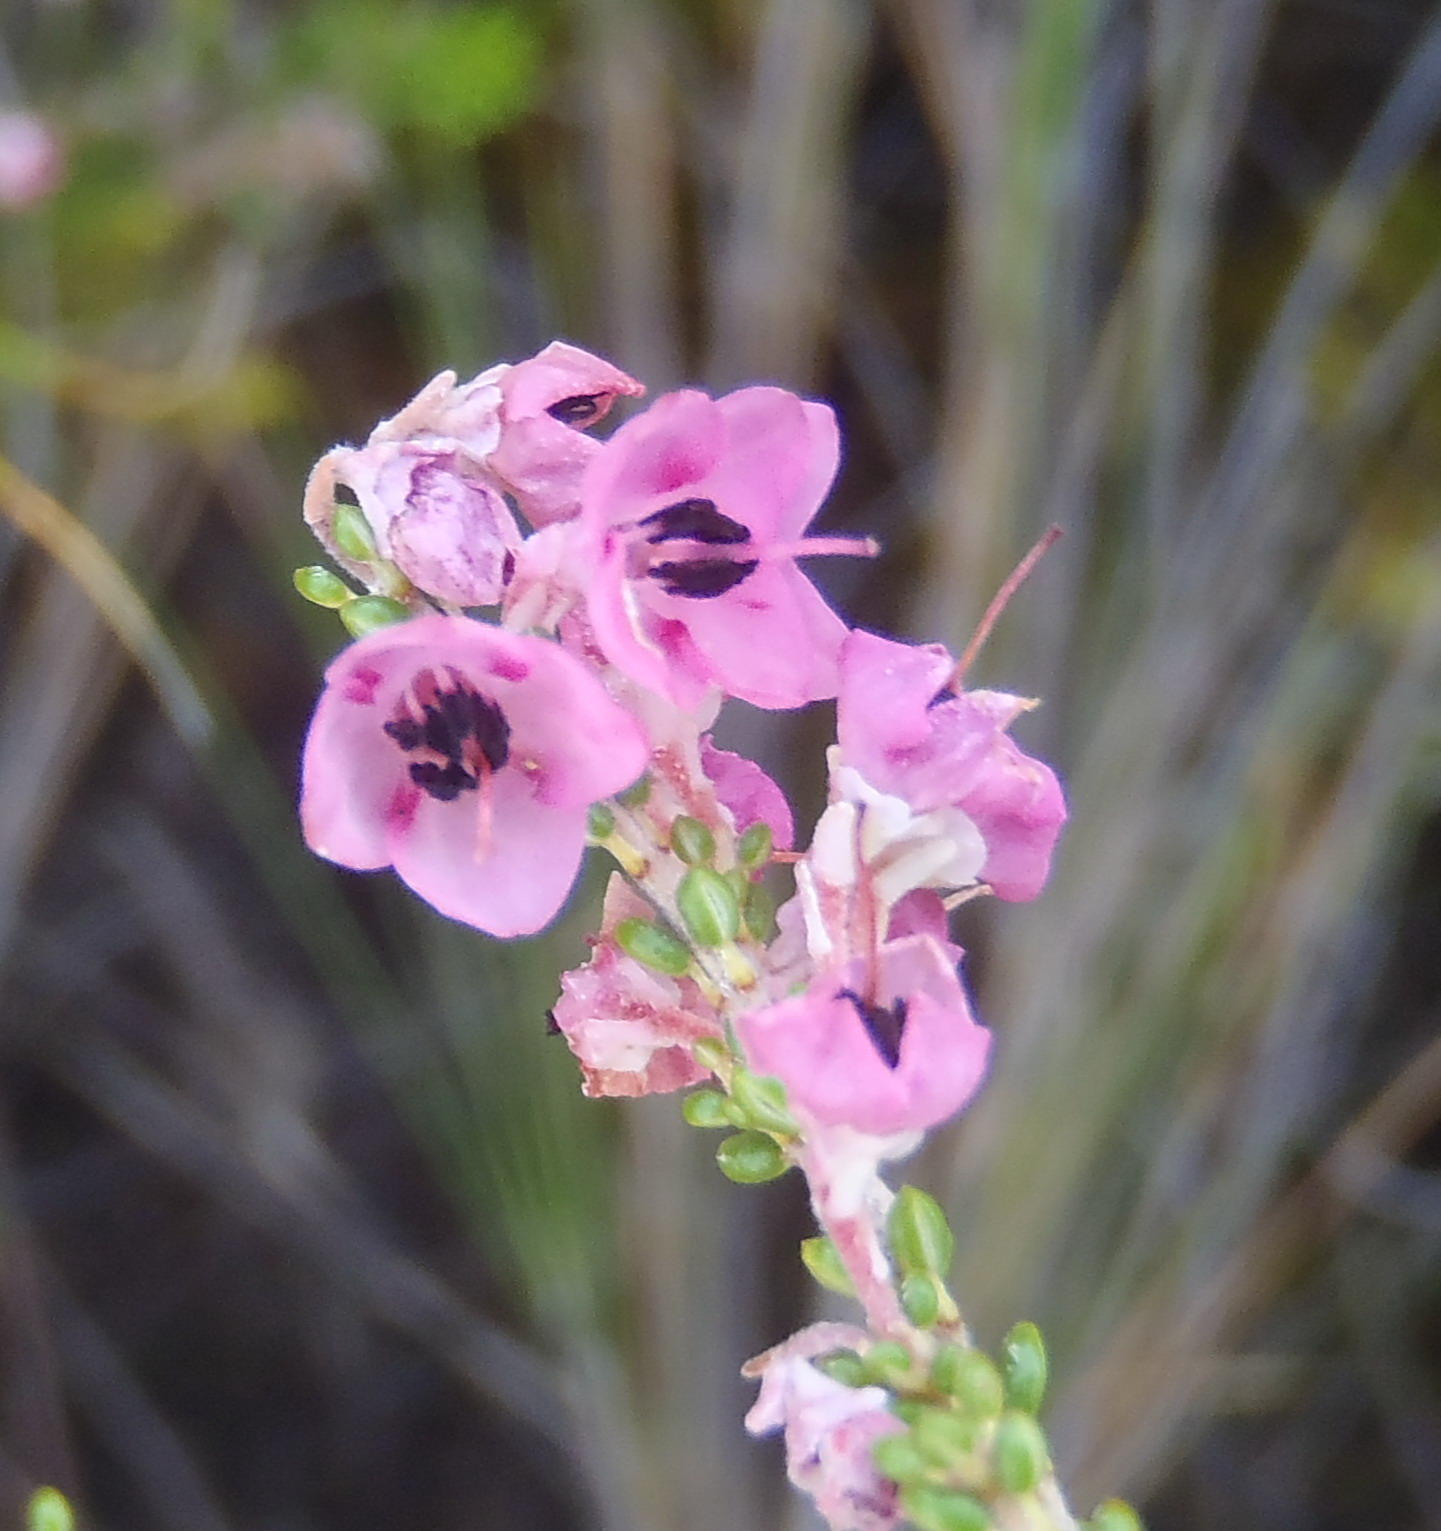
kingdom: Plantae
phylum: Tracheophyta
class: Magnoliopsida
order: Ericales
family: Ericaceae
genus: Erica
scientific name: Erica melanthera
